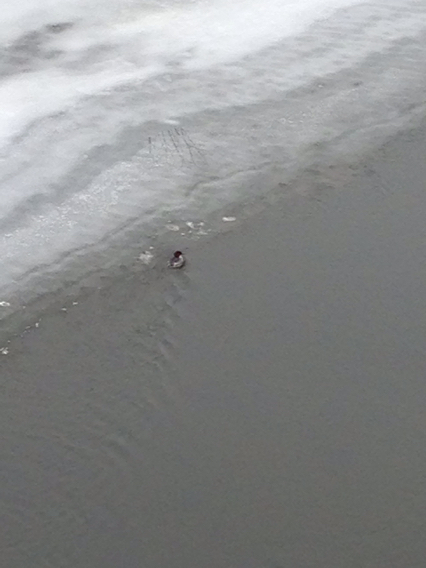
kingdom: Animalia
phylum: Chordata
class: Aves
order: Anseriformes
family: Anatidae
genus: Mergus
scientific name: Mergus merganser
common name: Common merganser
